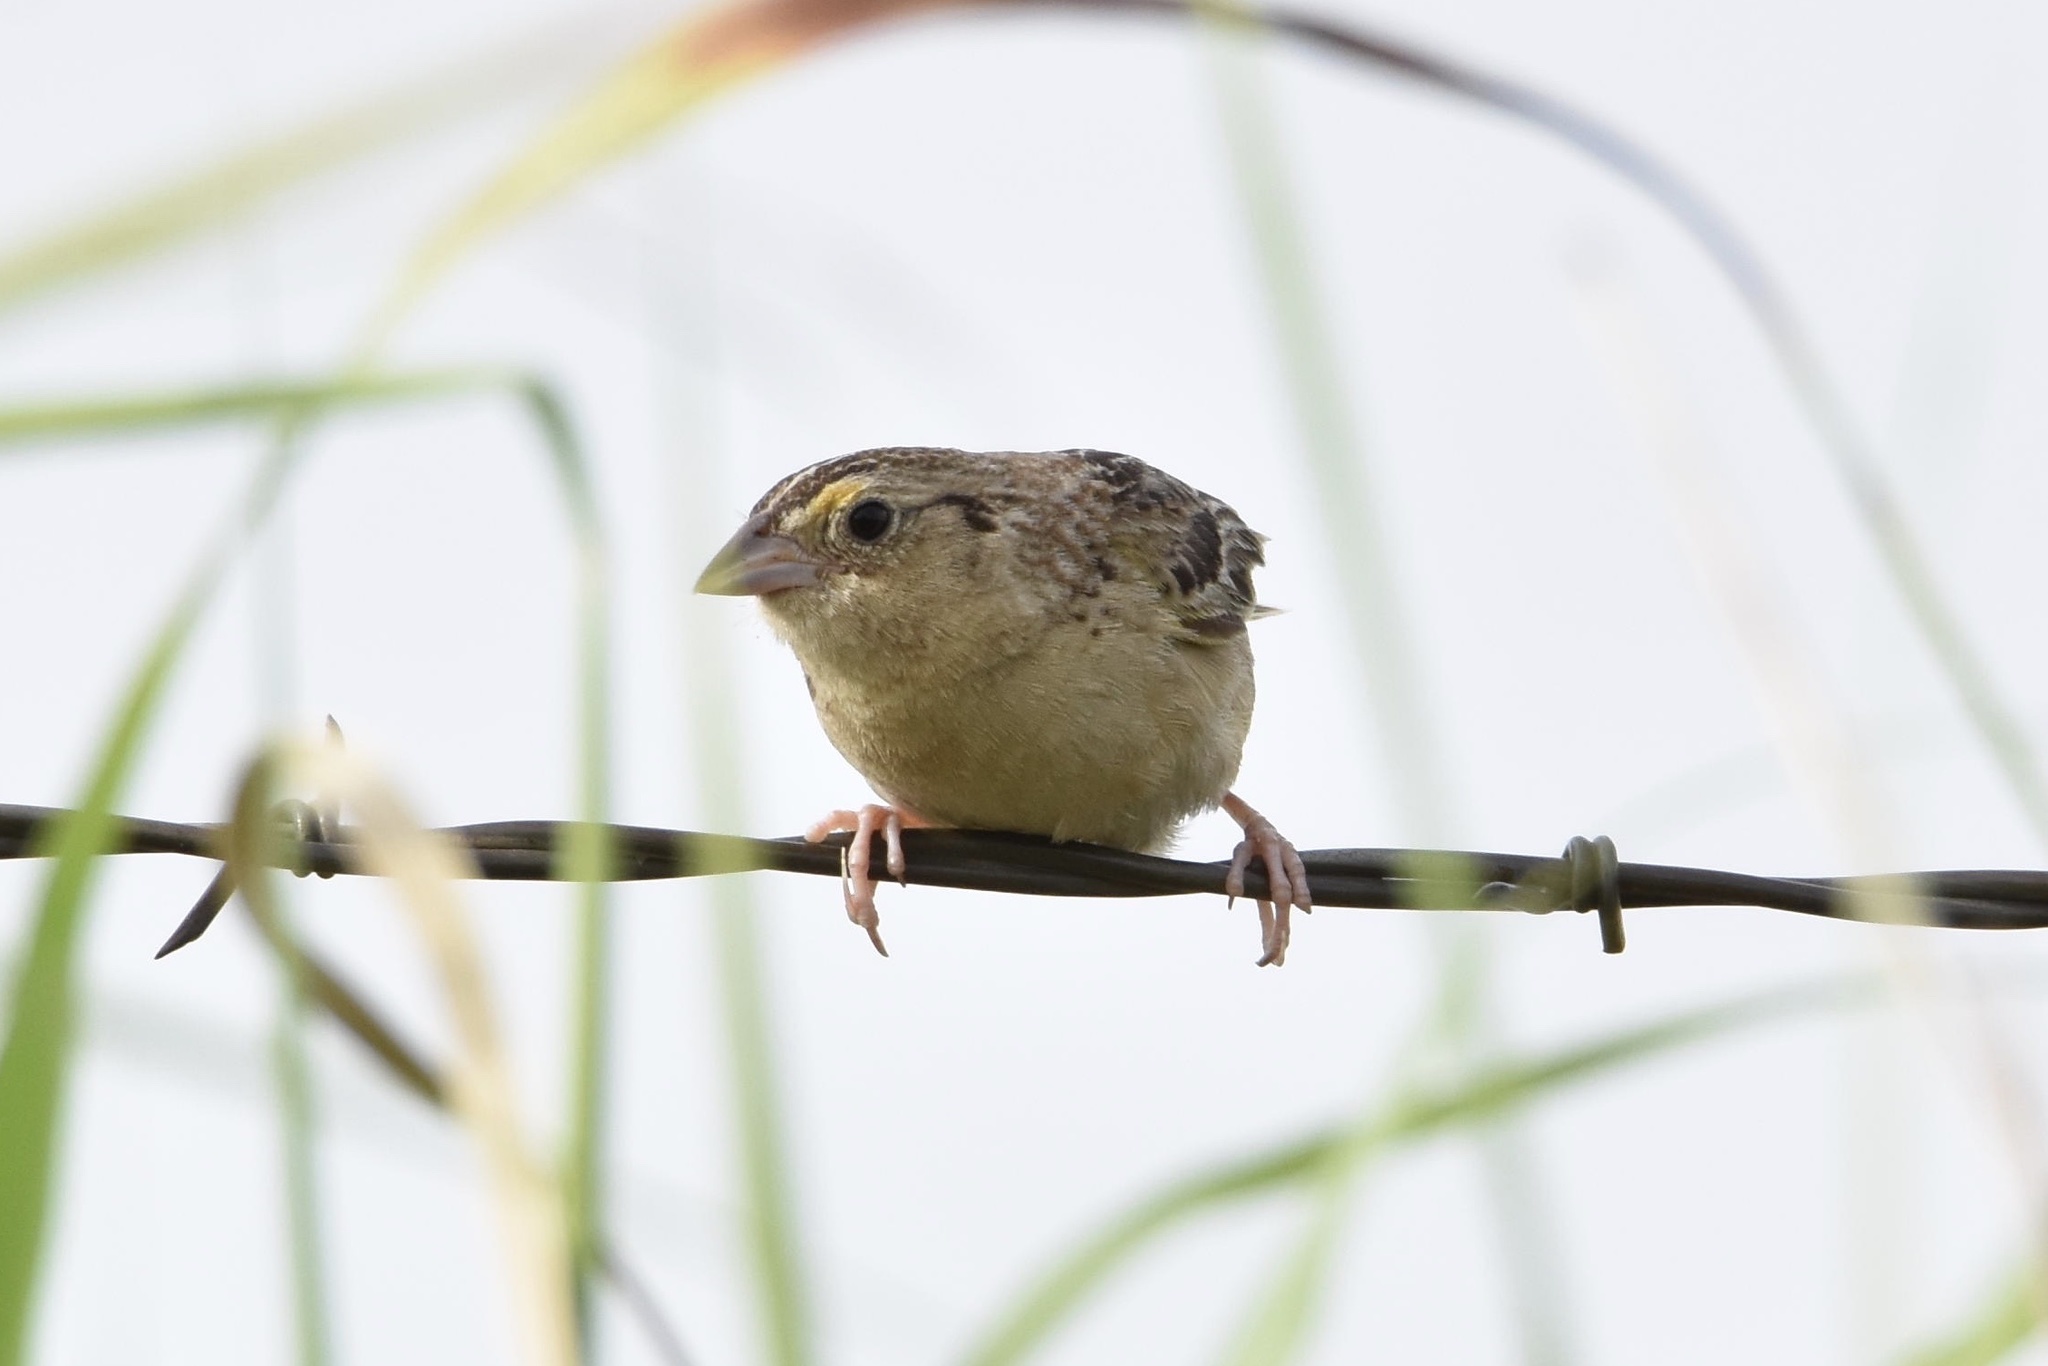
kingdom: Animalia
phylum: Chordata
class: Aves
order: Passeriformes
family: Passerellidae
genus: Ammodramus
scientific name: Ammodramus savannarum
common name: Grasshopper sparrow
